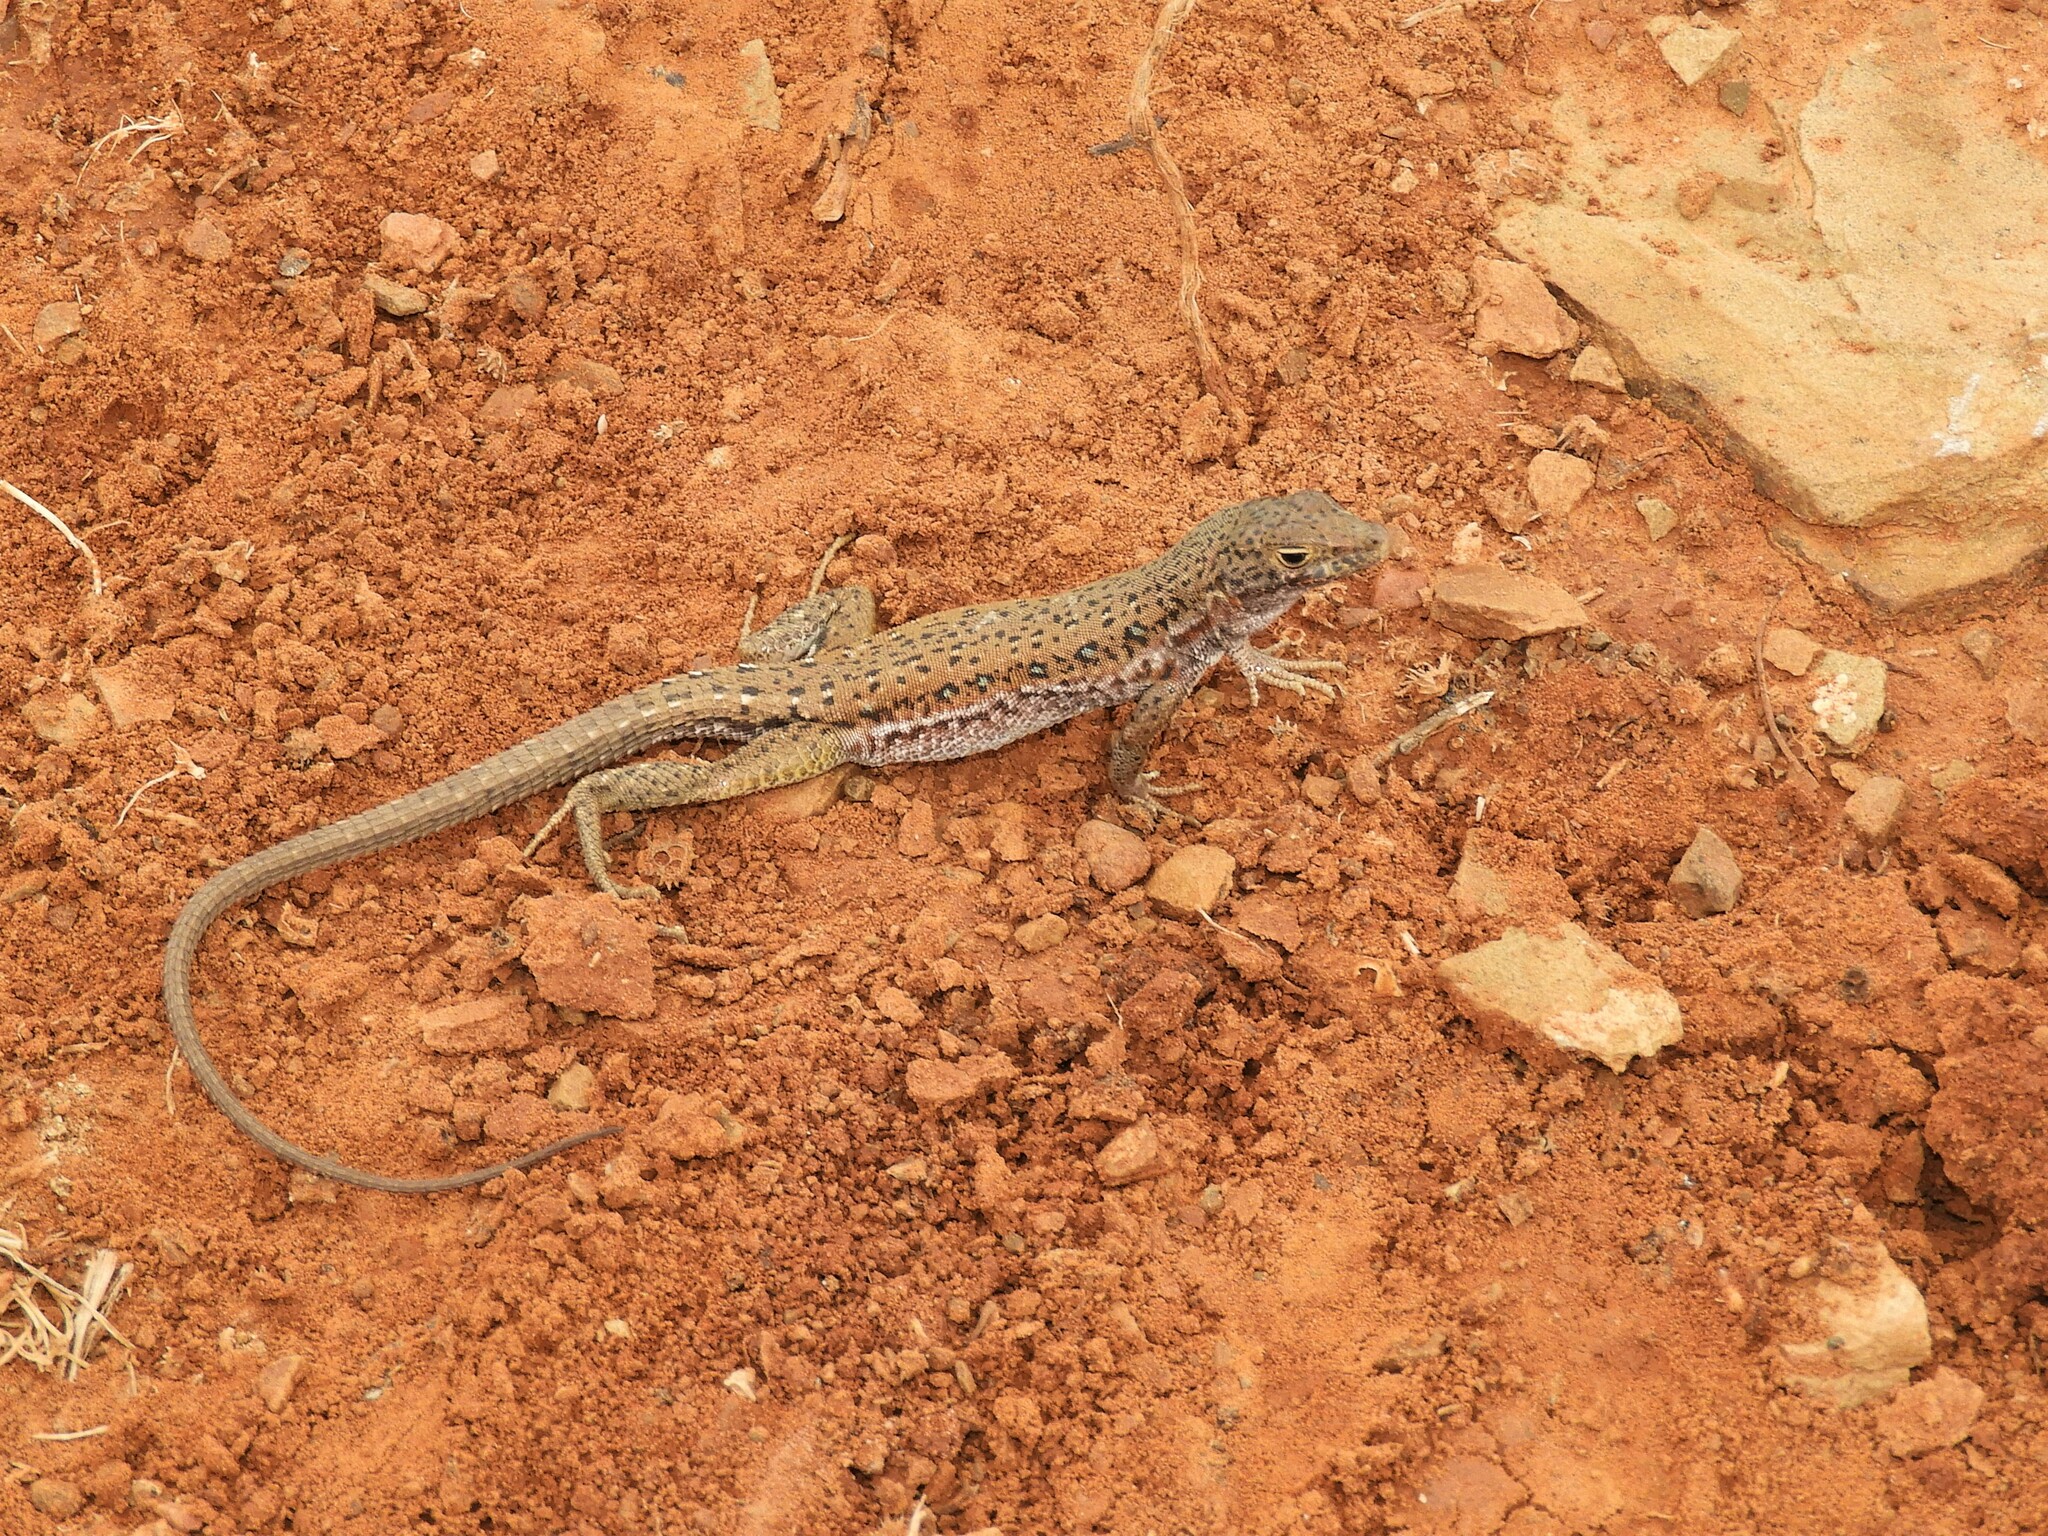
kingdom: Animalia
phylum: Chordata
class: Squamata
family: Lacertidae
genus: Pedioplanis
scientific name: Pedioplanis lineoocellata
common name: Spotted sand lizard
